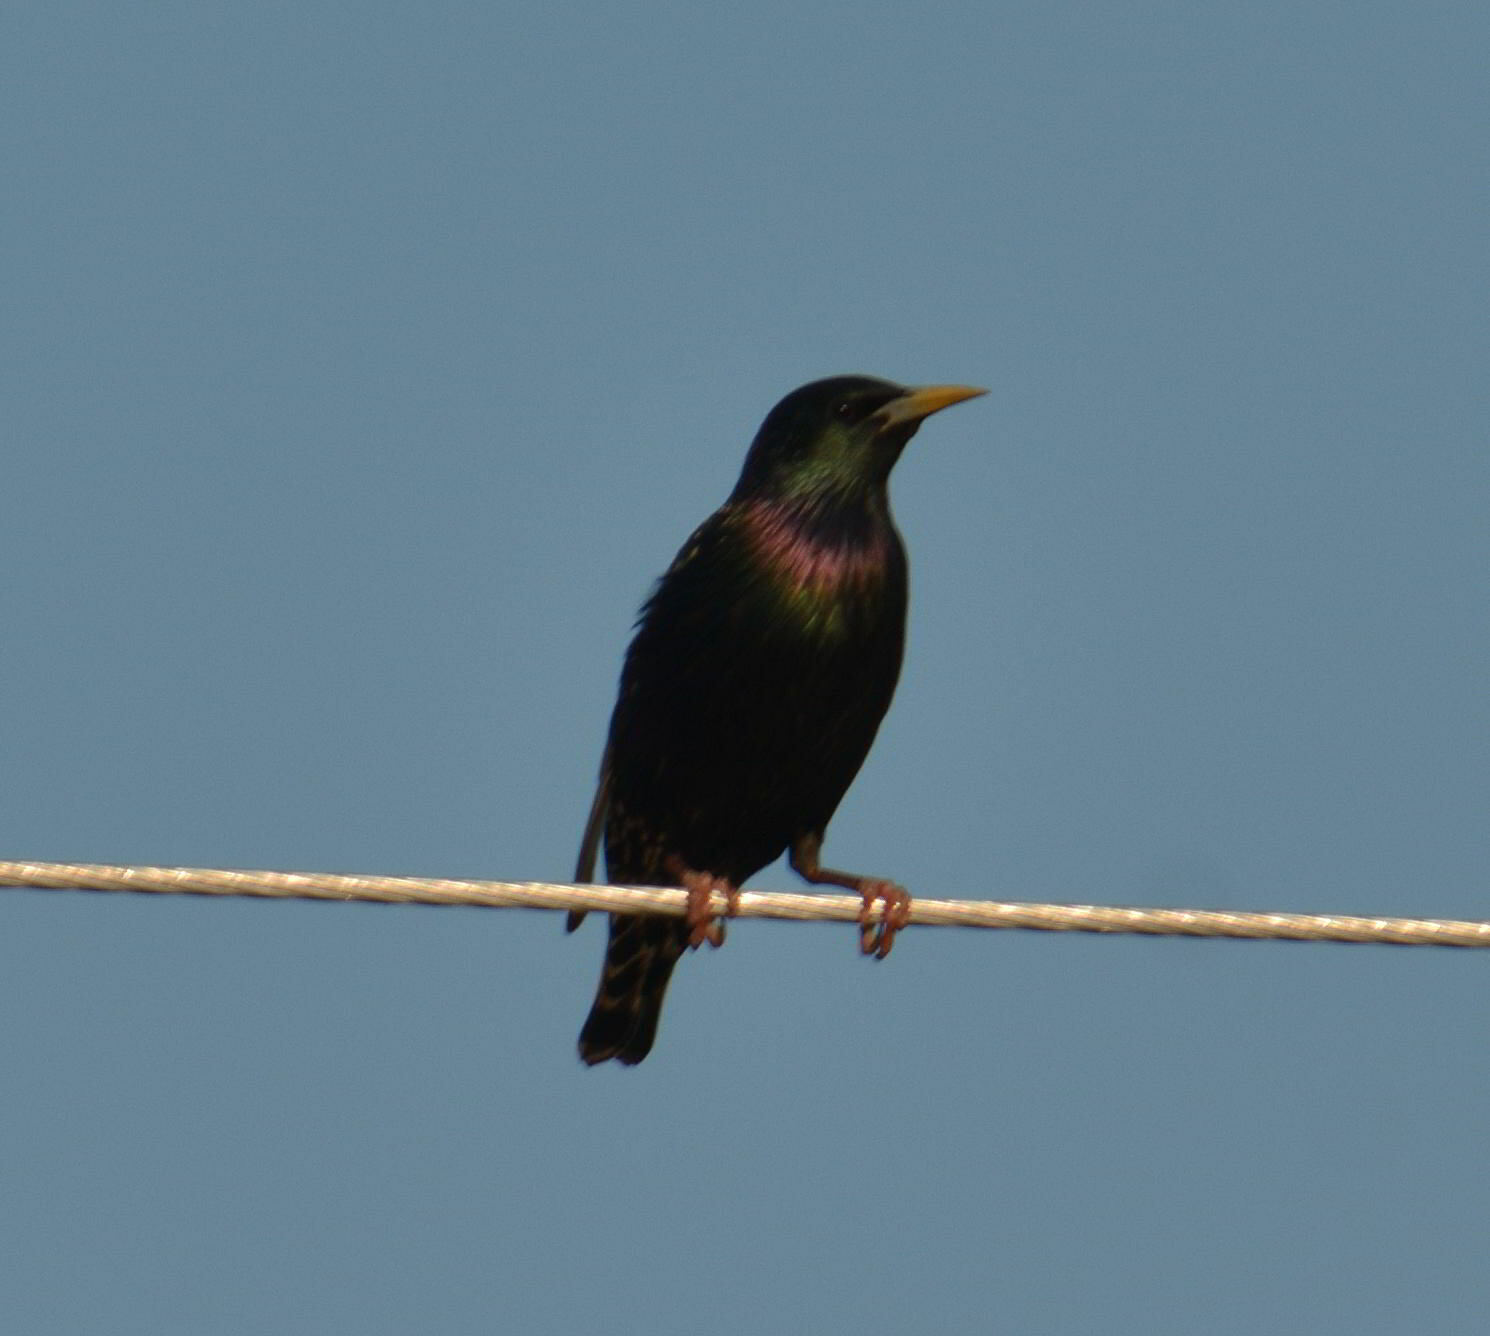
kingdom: Animalia
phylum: Chordata
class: Aves
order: Passeriformes
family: Sturnidae
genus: Sturnus
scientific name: Sturnus vulgaris
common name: Common starling
